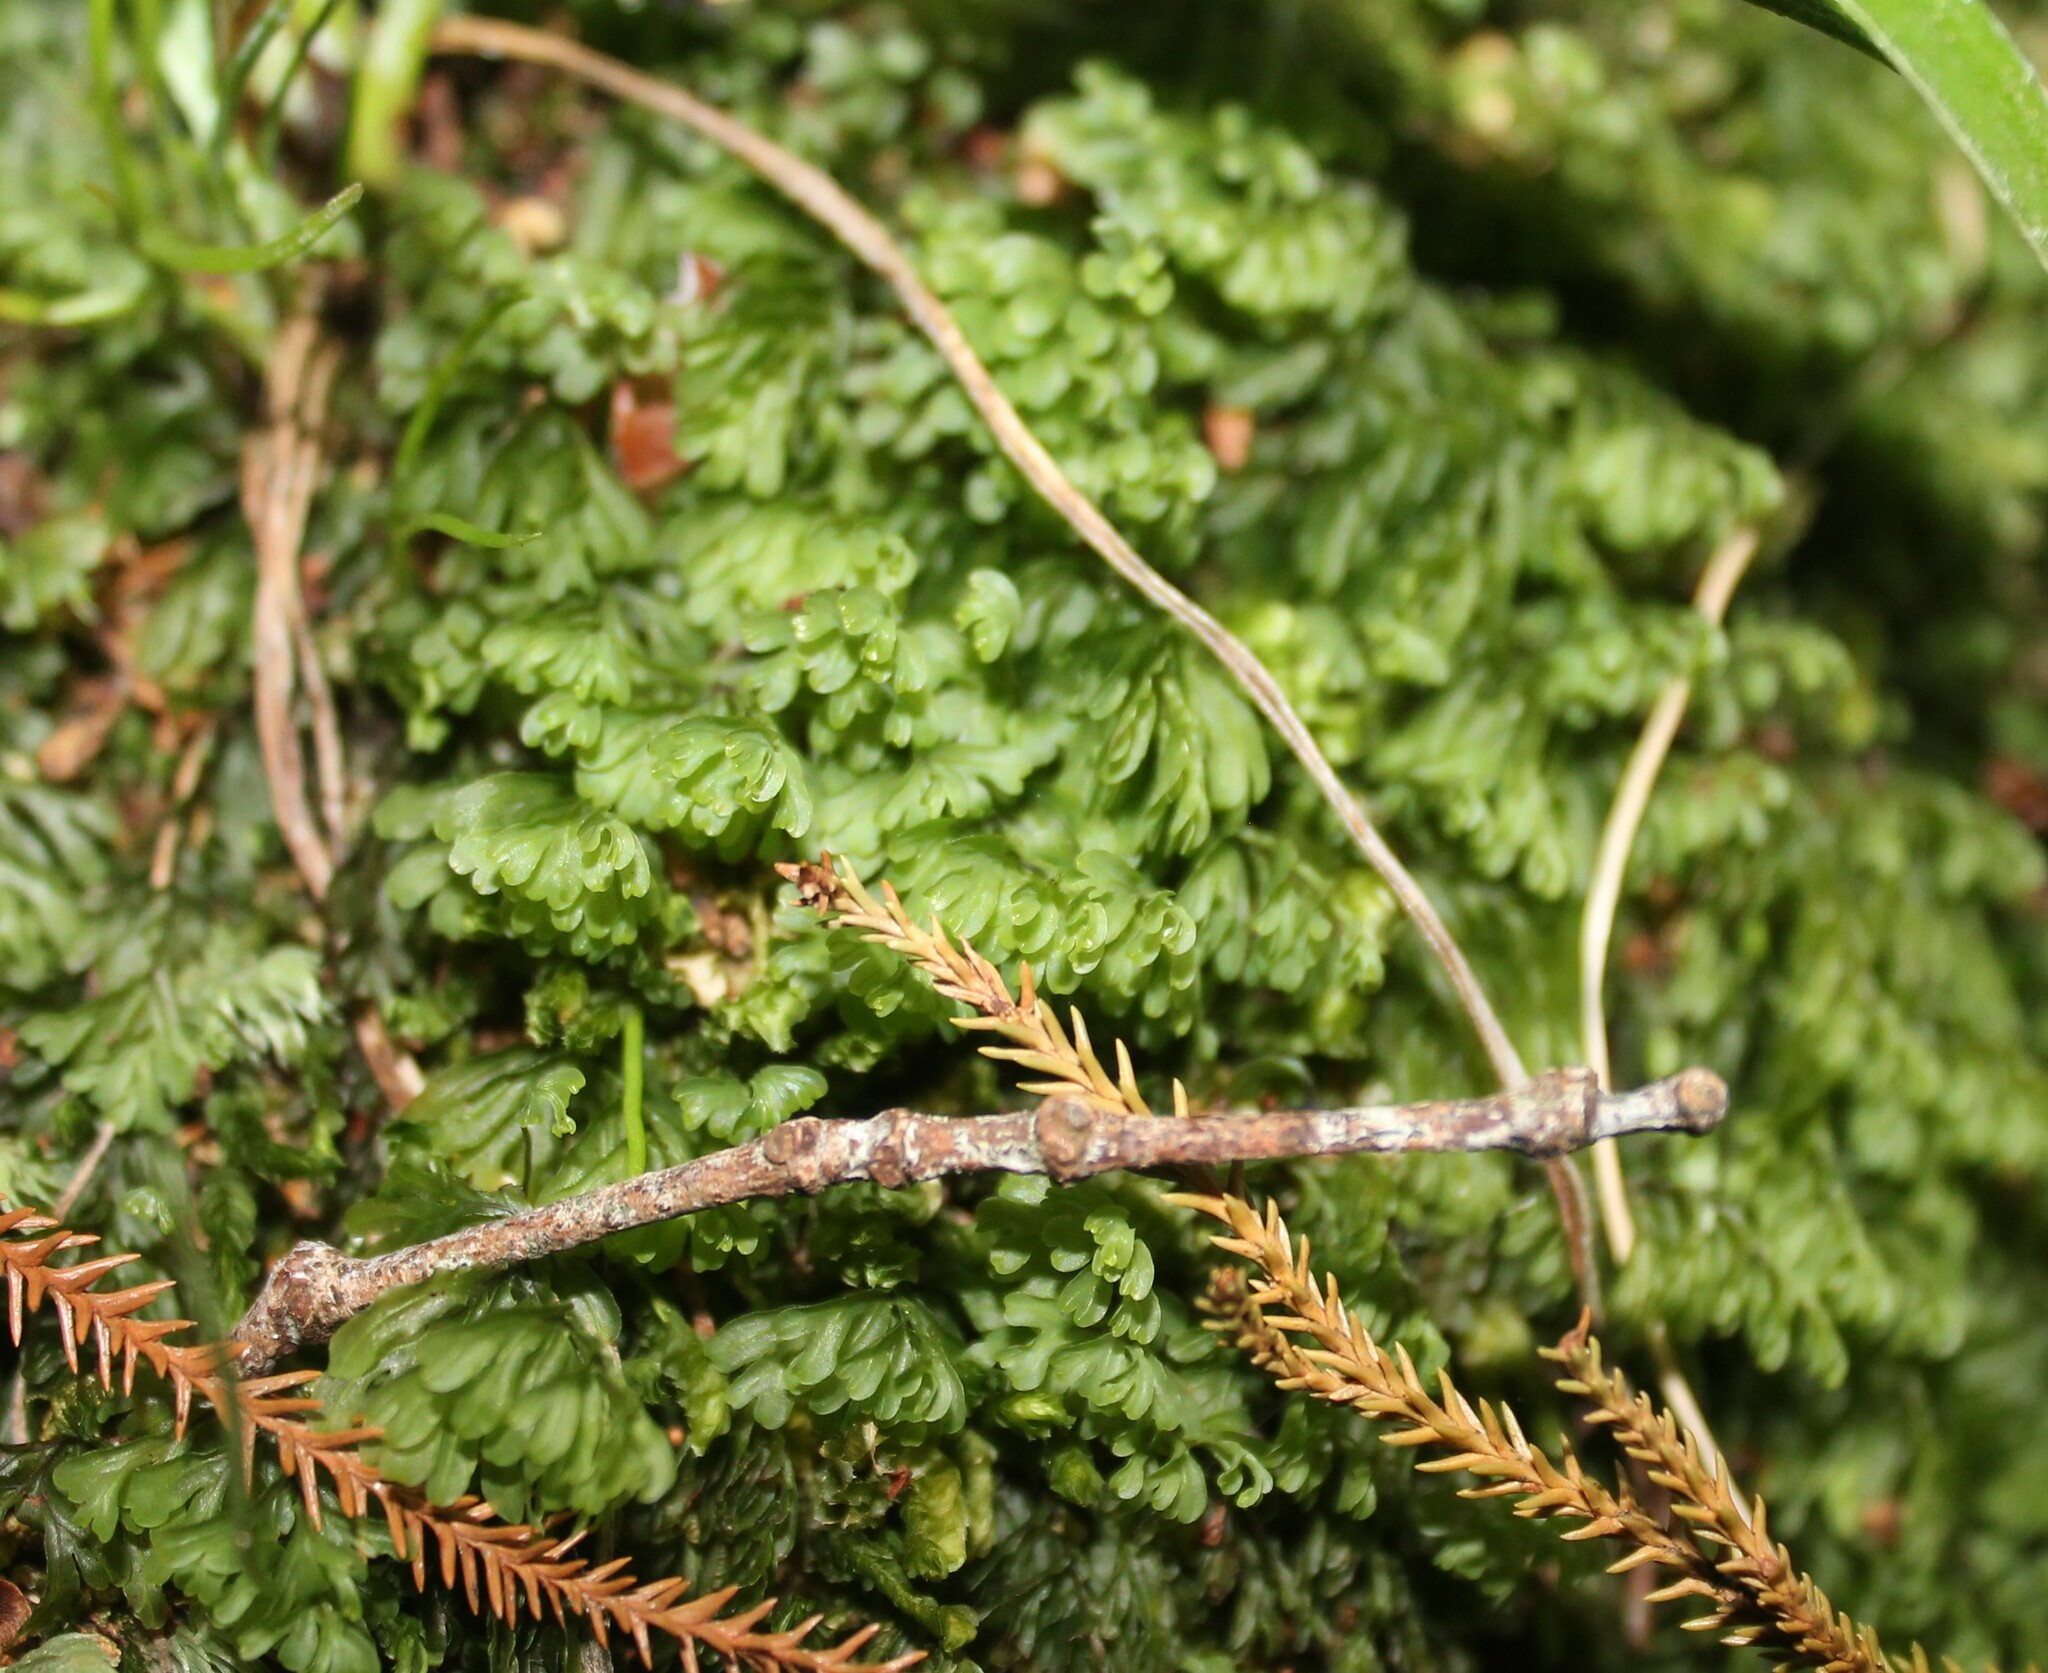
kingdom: Plantae
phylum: Tracheophyta
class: Polypodiopsida
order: Hymenophyllales
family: Hymenophyllaceae
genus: Hymenophyllum
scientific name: Hymenophyllum rarum
